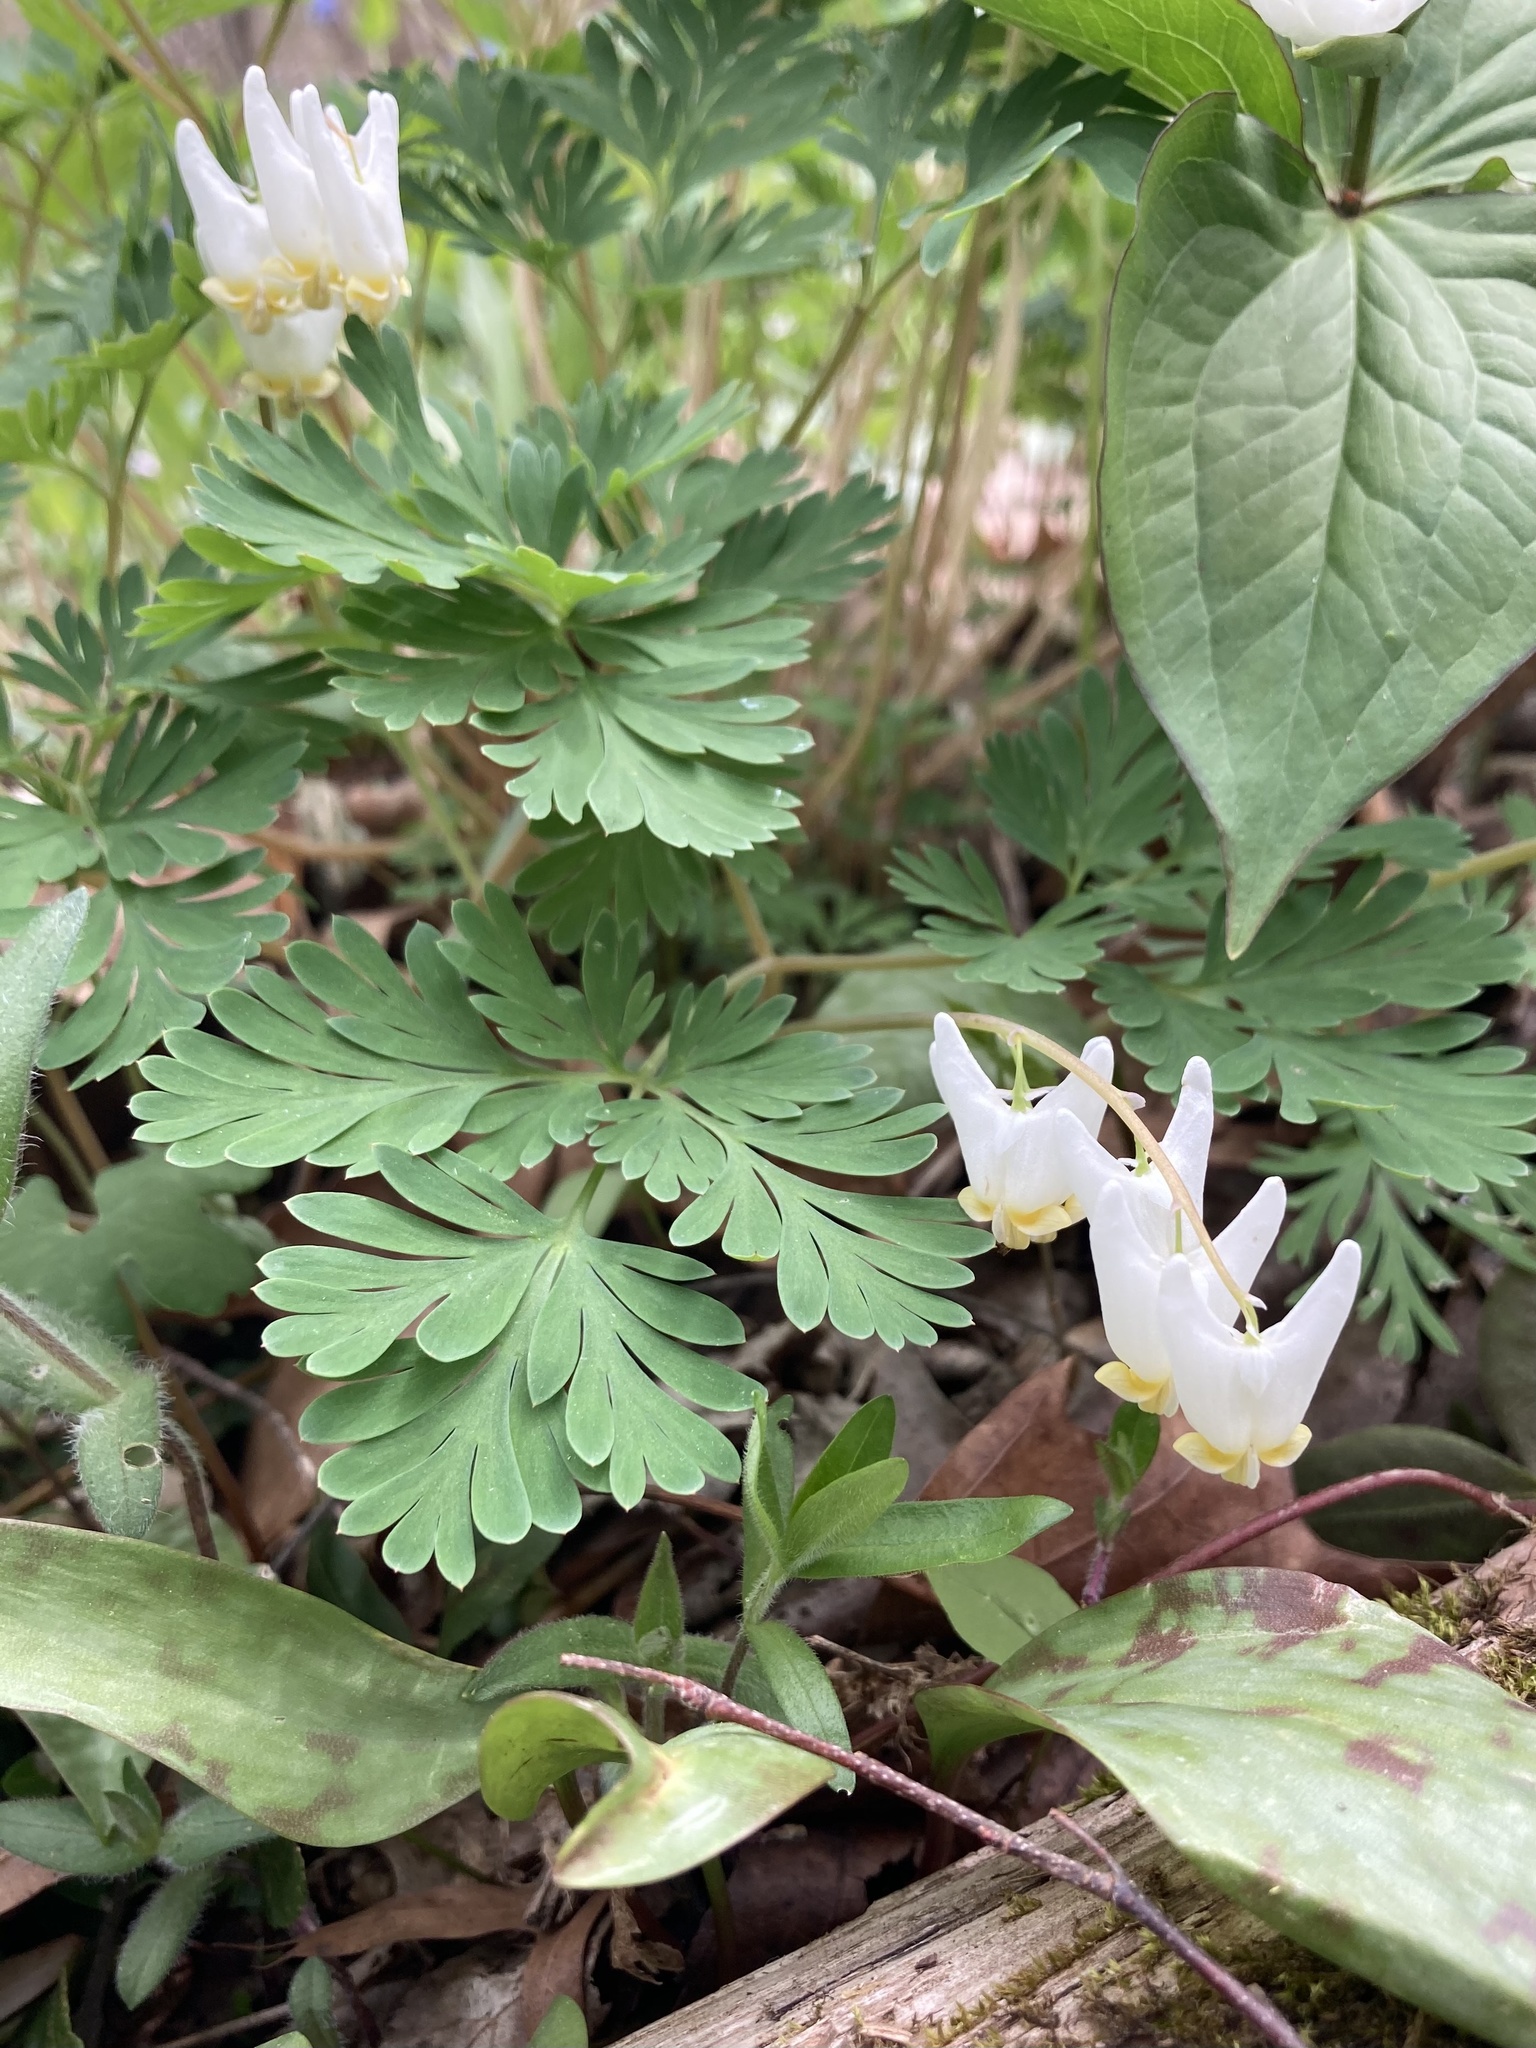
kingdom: Plantae
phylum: Tracheophyta
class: Magnoliopsida
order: Ranunculales
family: Papaveraceae
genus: Dicentra
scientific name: Dicentra cucullaria
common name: Dutchman's breeches
